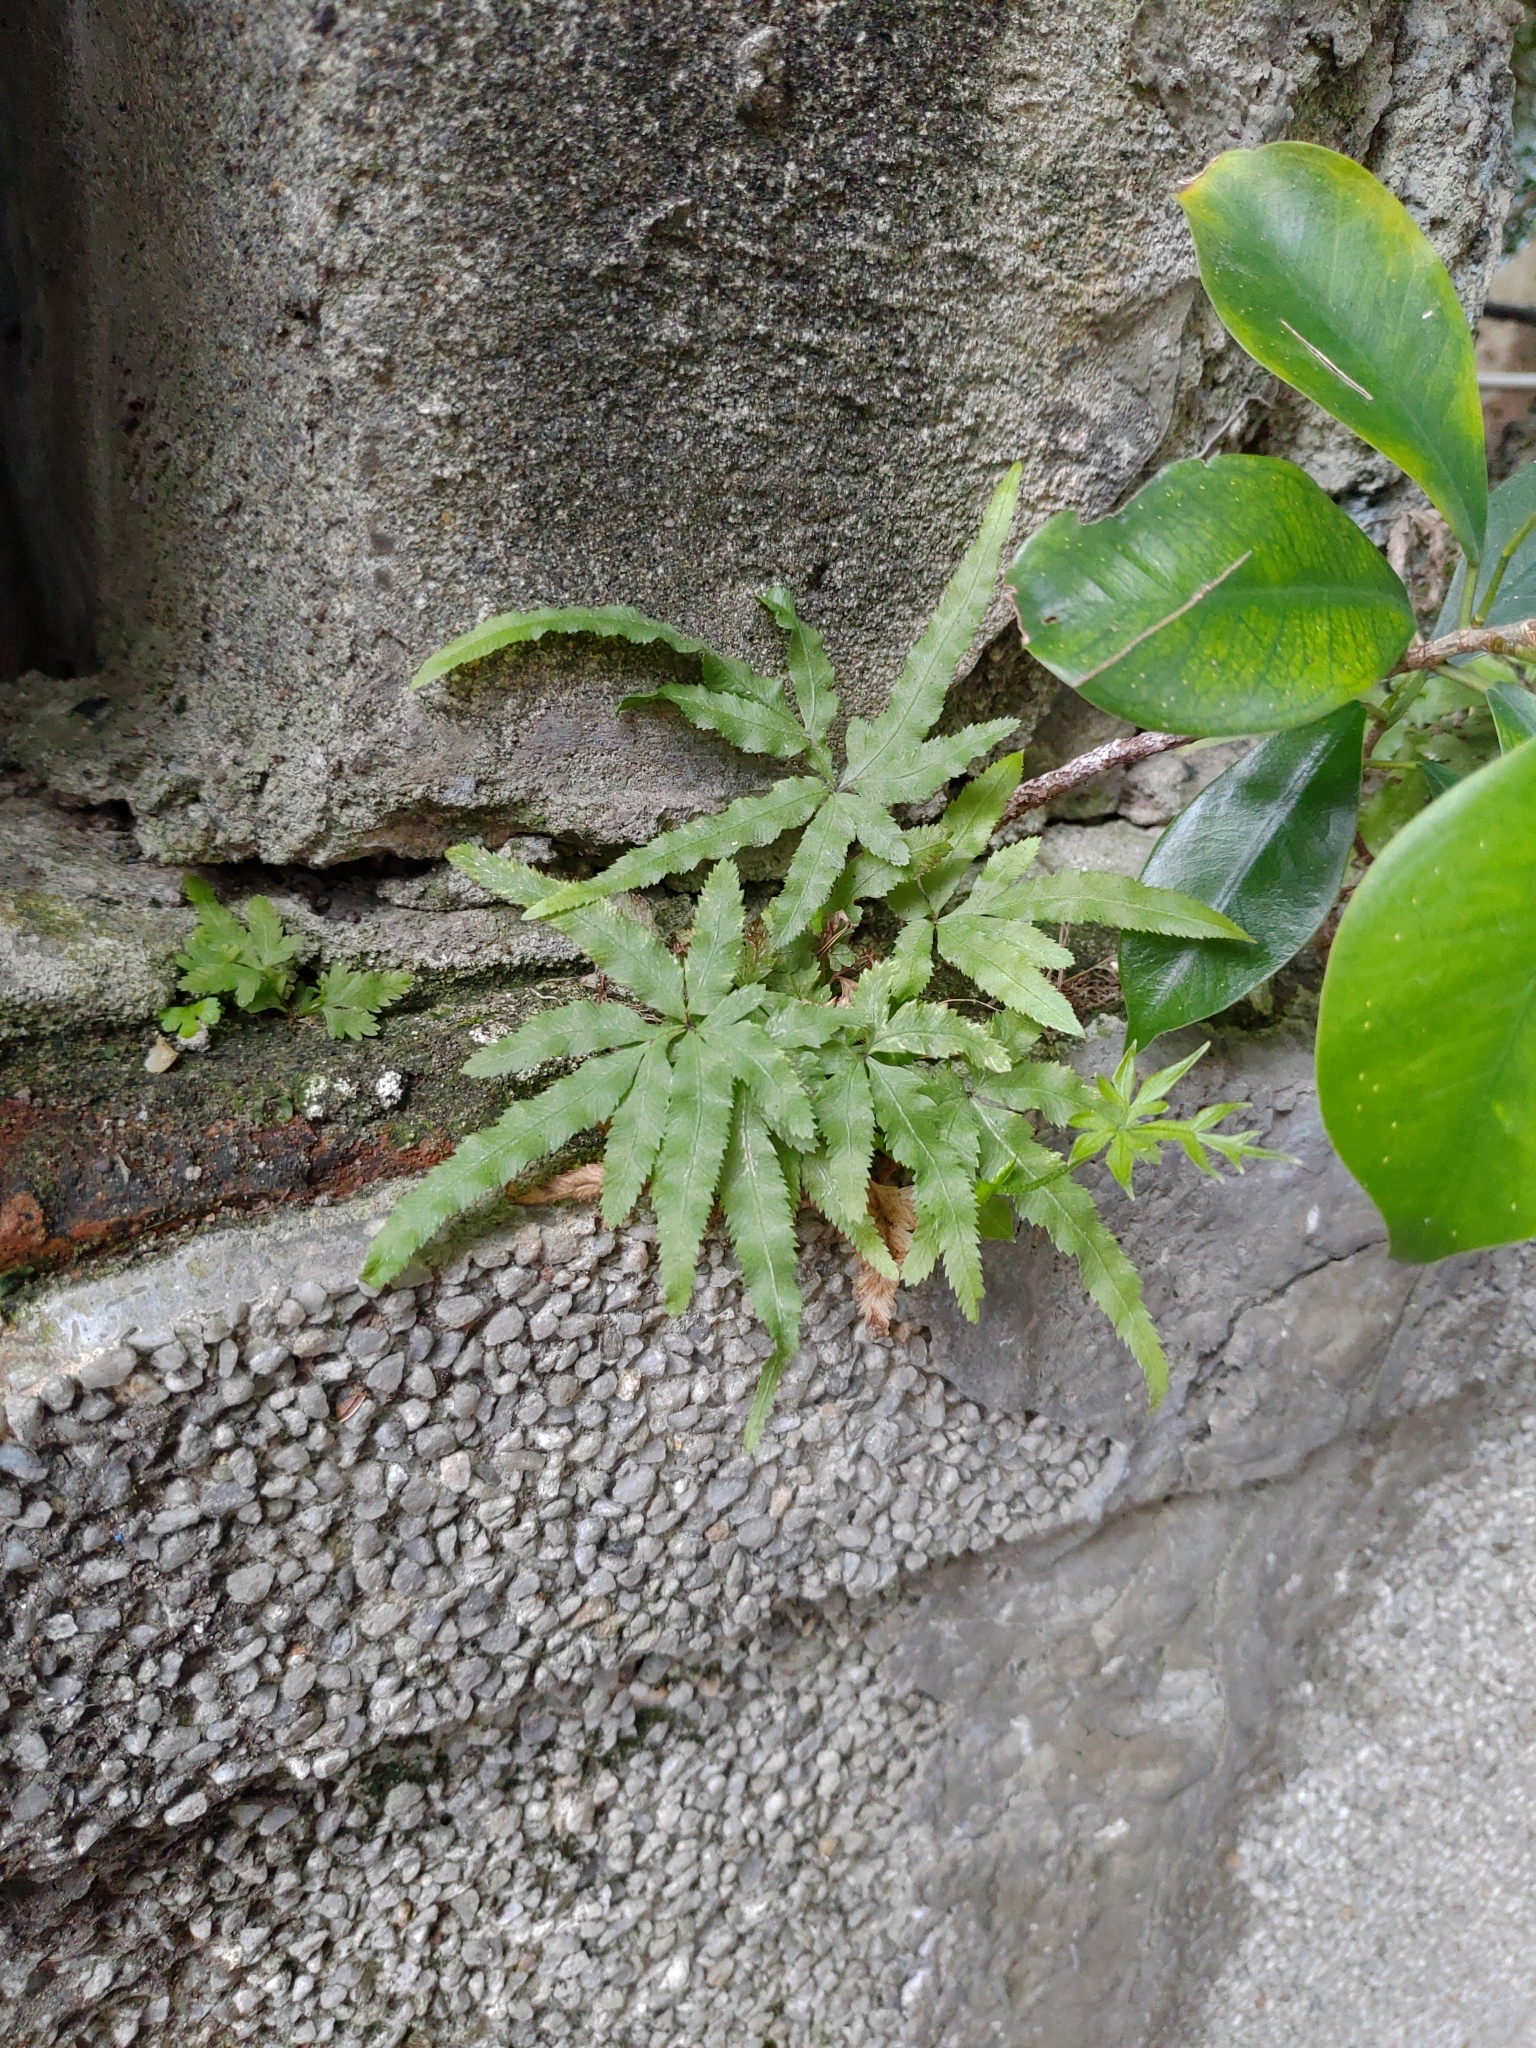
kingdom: Plantae
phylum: Tracheophyta
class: Polypodiopsida
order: Polypodiales
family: Pteridaceae
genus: Pteris
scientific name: Pteris multifida
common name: Spider brake
